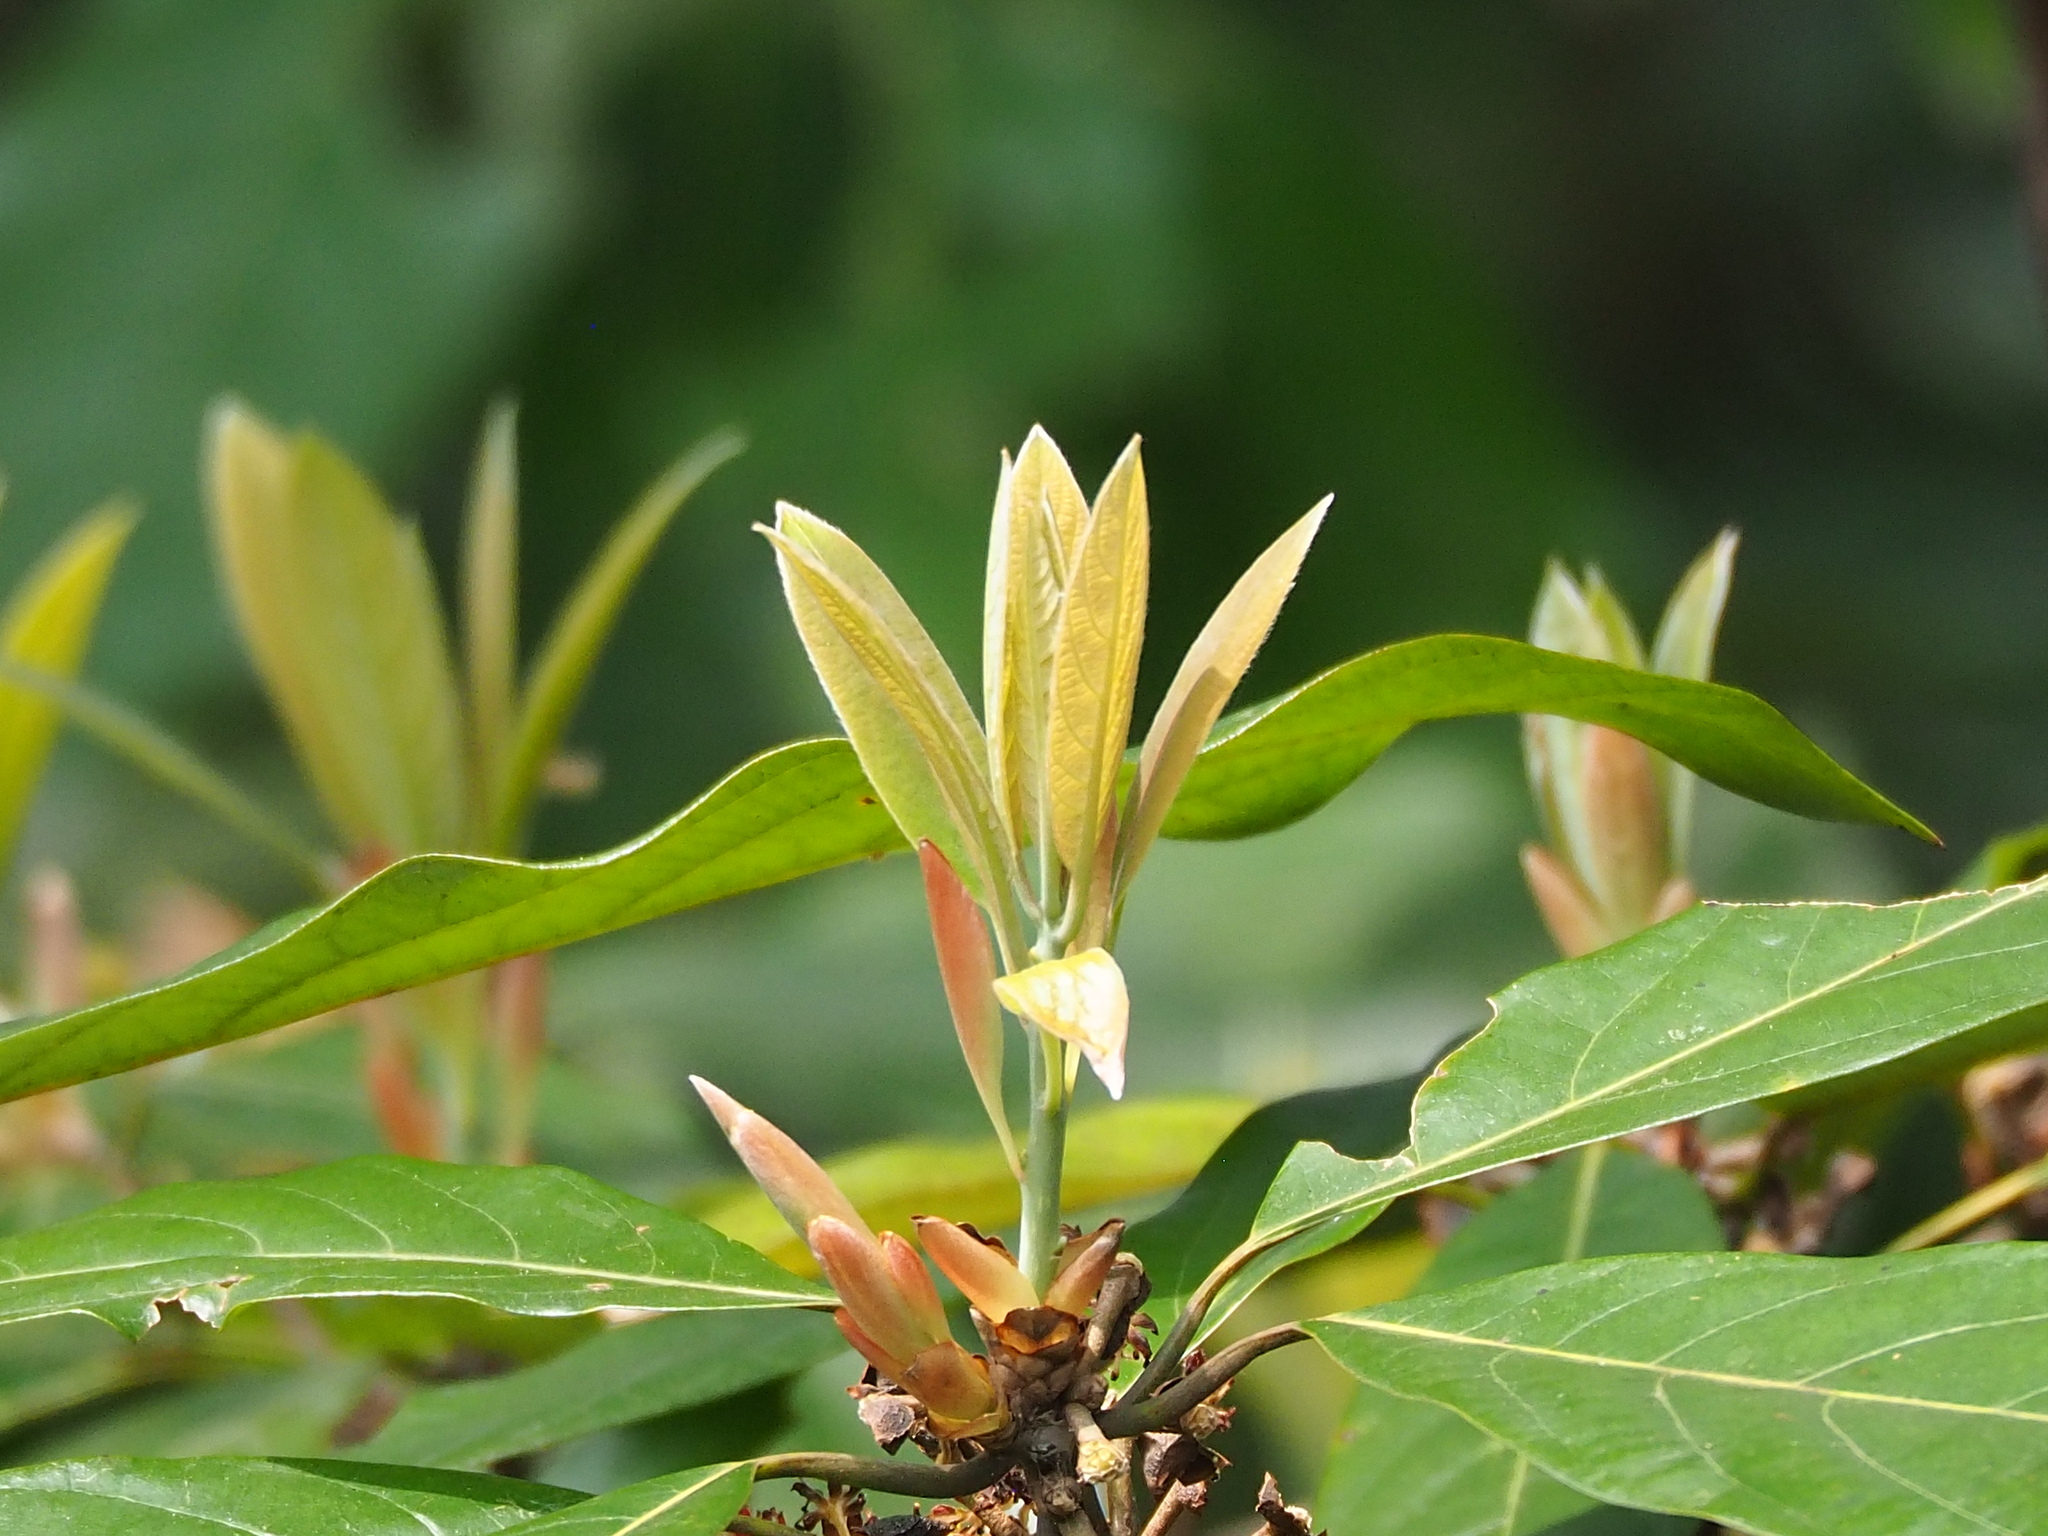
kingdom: Plantae
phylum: Tracheophyta
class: Magnoliopsida
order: Laurales
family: Lauraceae
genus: Lindera
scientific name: Lindera megaphylla
